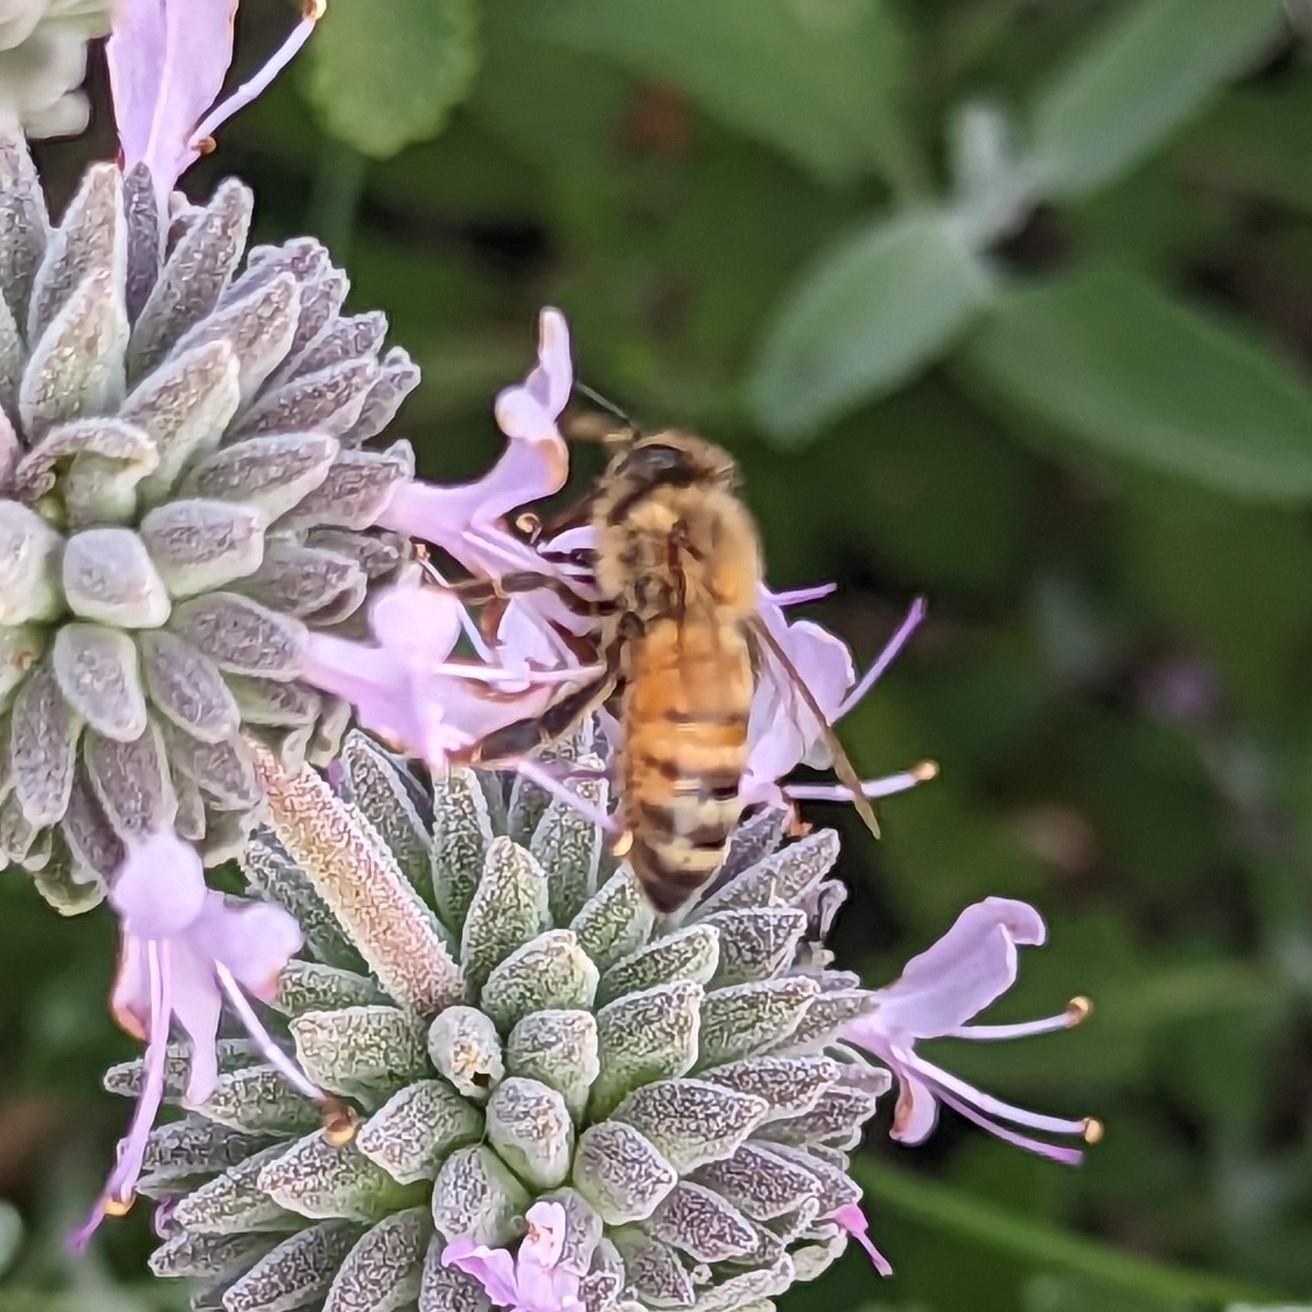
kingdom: Animalia
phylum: Arthropoda
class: Insecta
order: Hymenoptera
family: Apidae
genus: Apis
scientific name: Apis mellifera
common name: Honey bee
